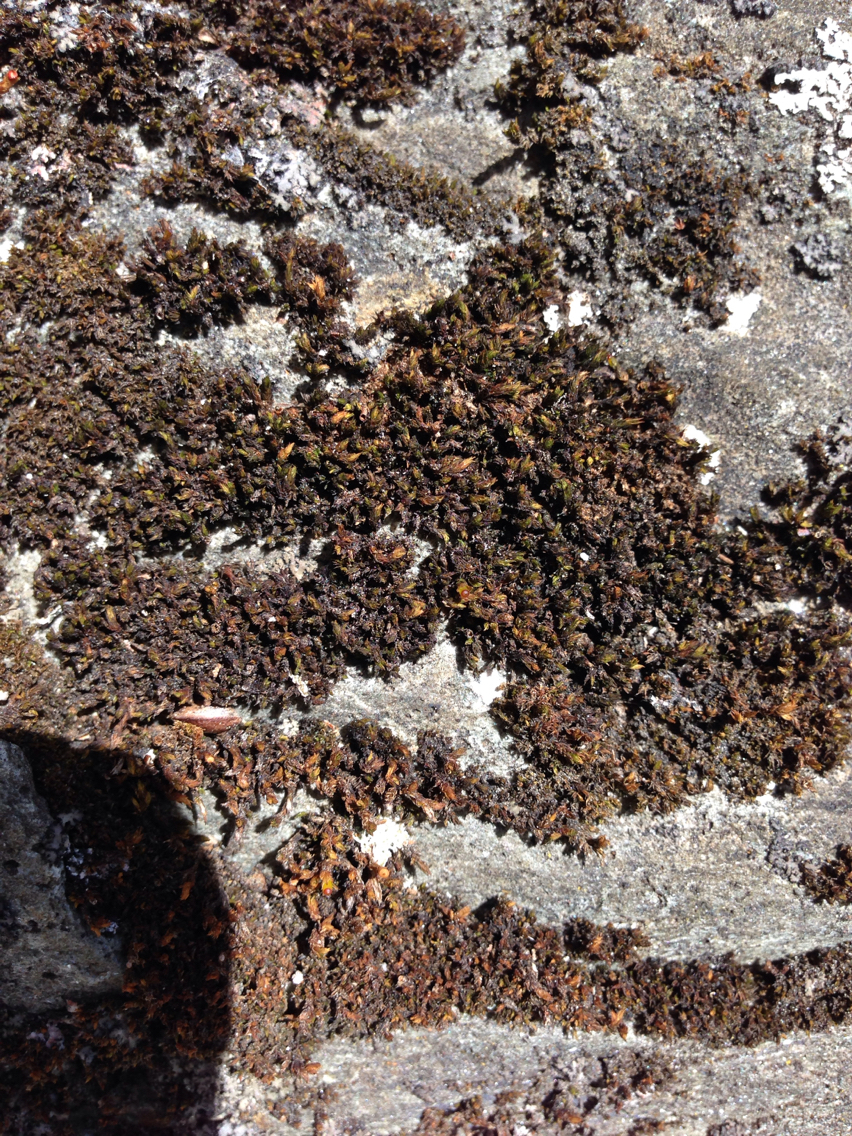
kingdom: Plantae
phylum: Bryophyta
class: Bryopsida
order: Grimmiales
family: Grimmiaceae
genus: Schistidium
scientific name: Schistidium rivulare
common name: River bloom moss
